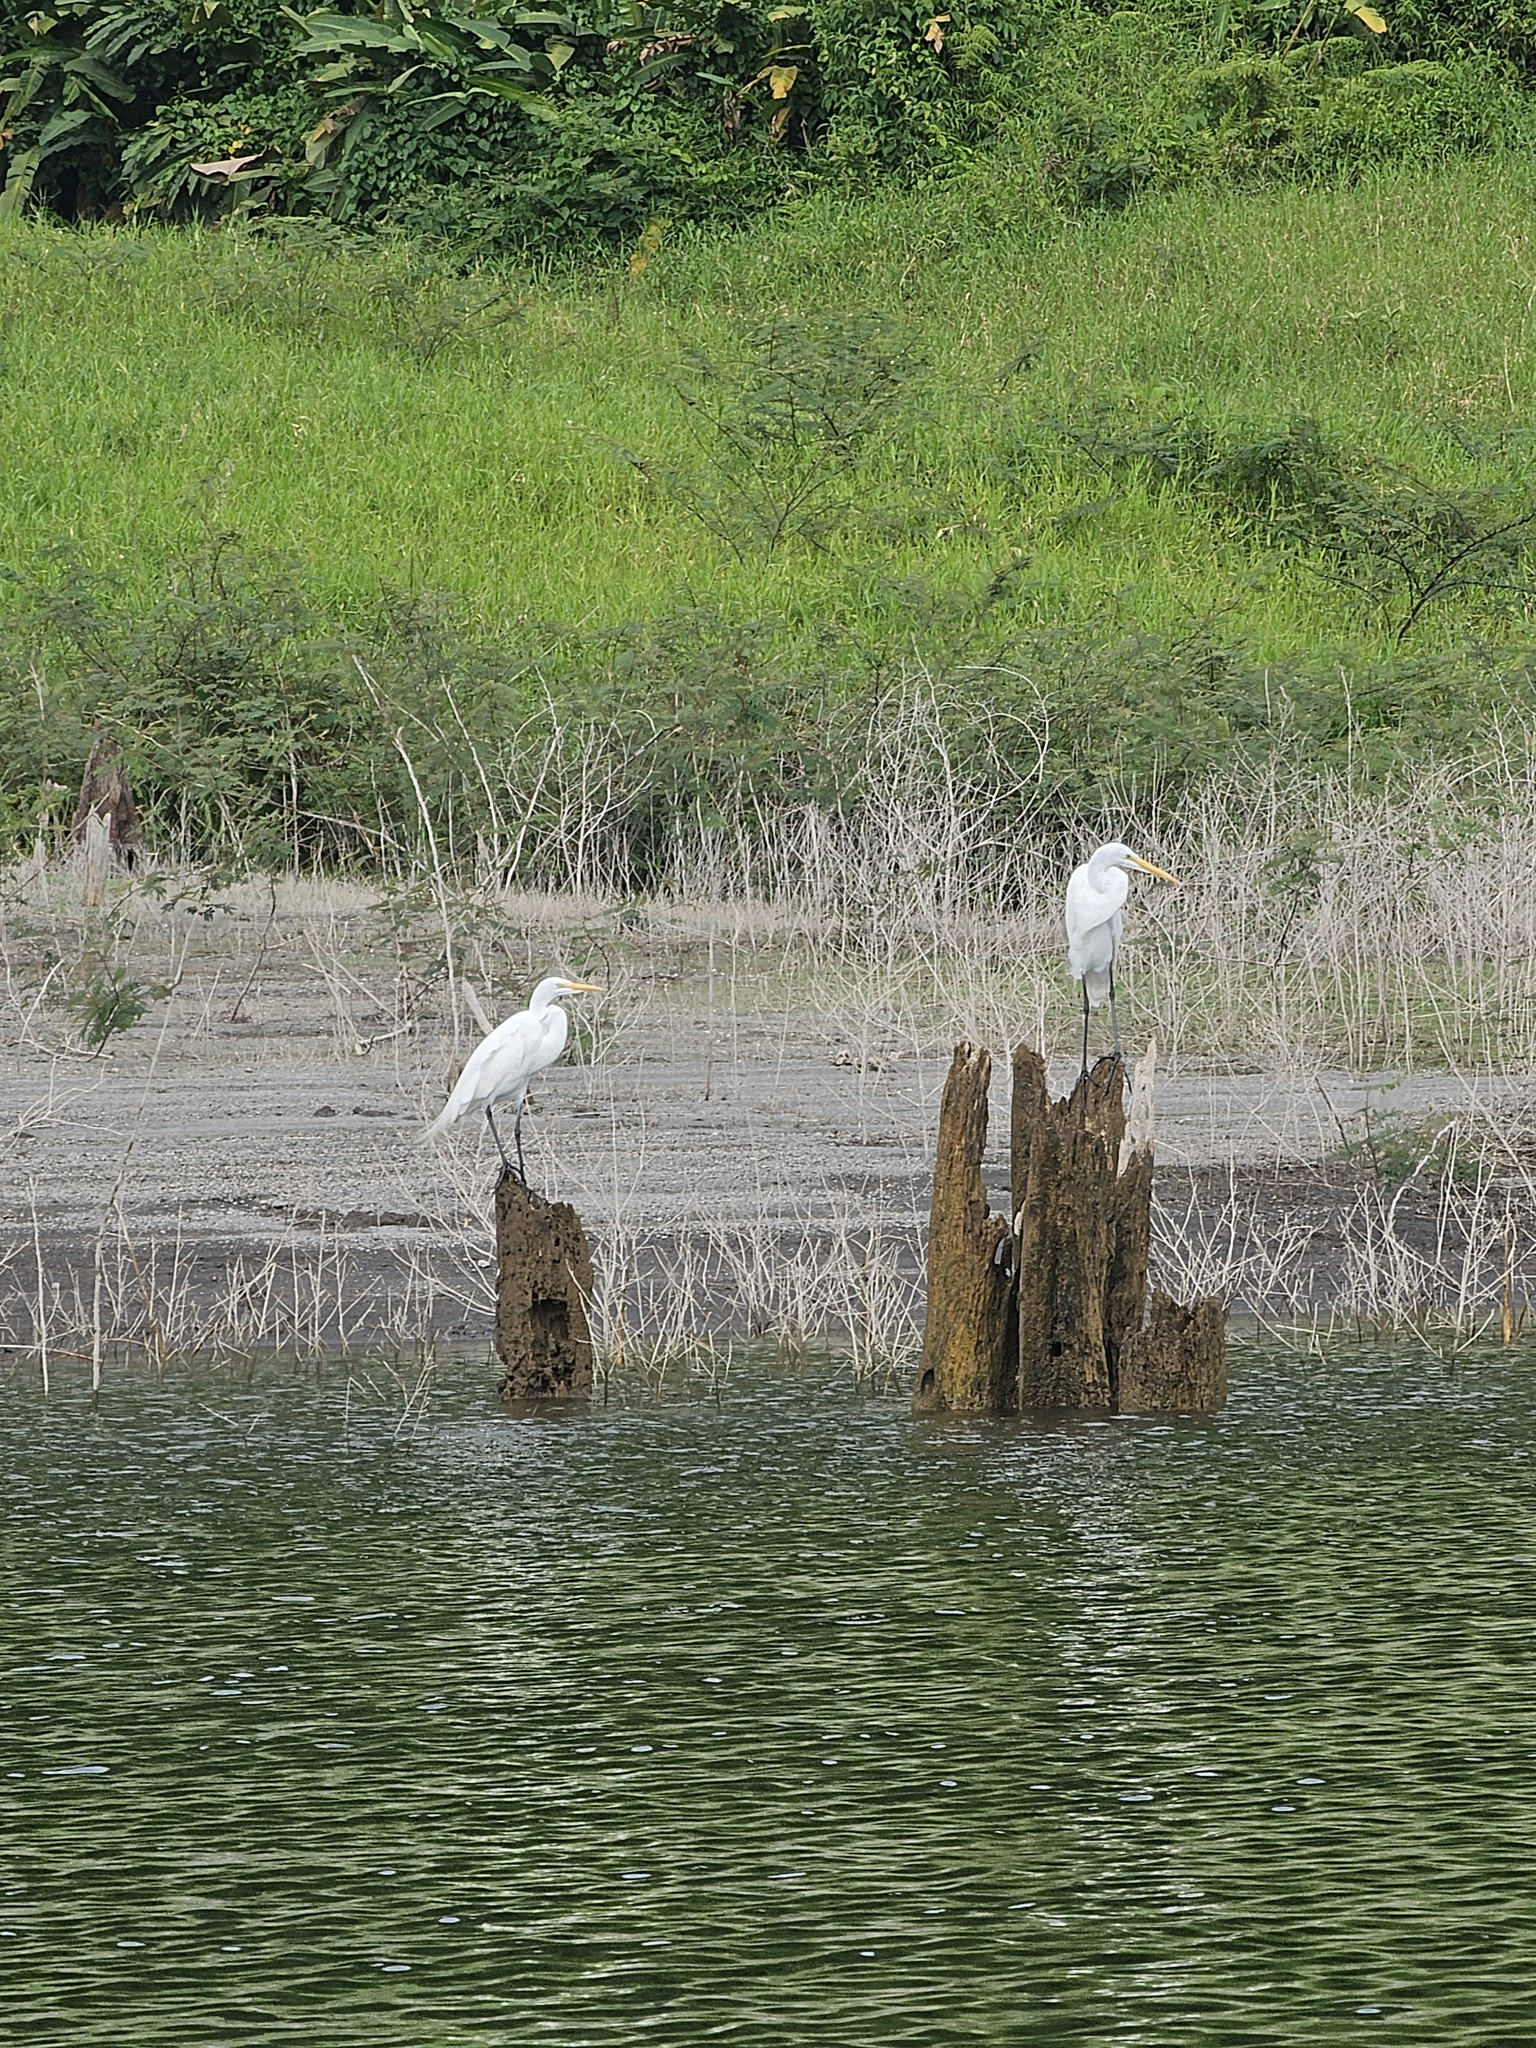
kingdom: Animalia
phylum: Chordata
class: Aves
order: Pelecaniformes
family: Ardeidae
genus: Ardea
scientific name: Ardea alba
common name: Great egret
